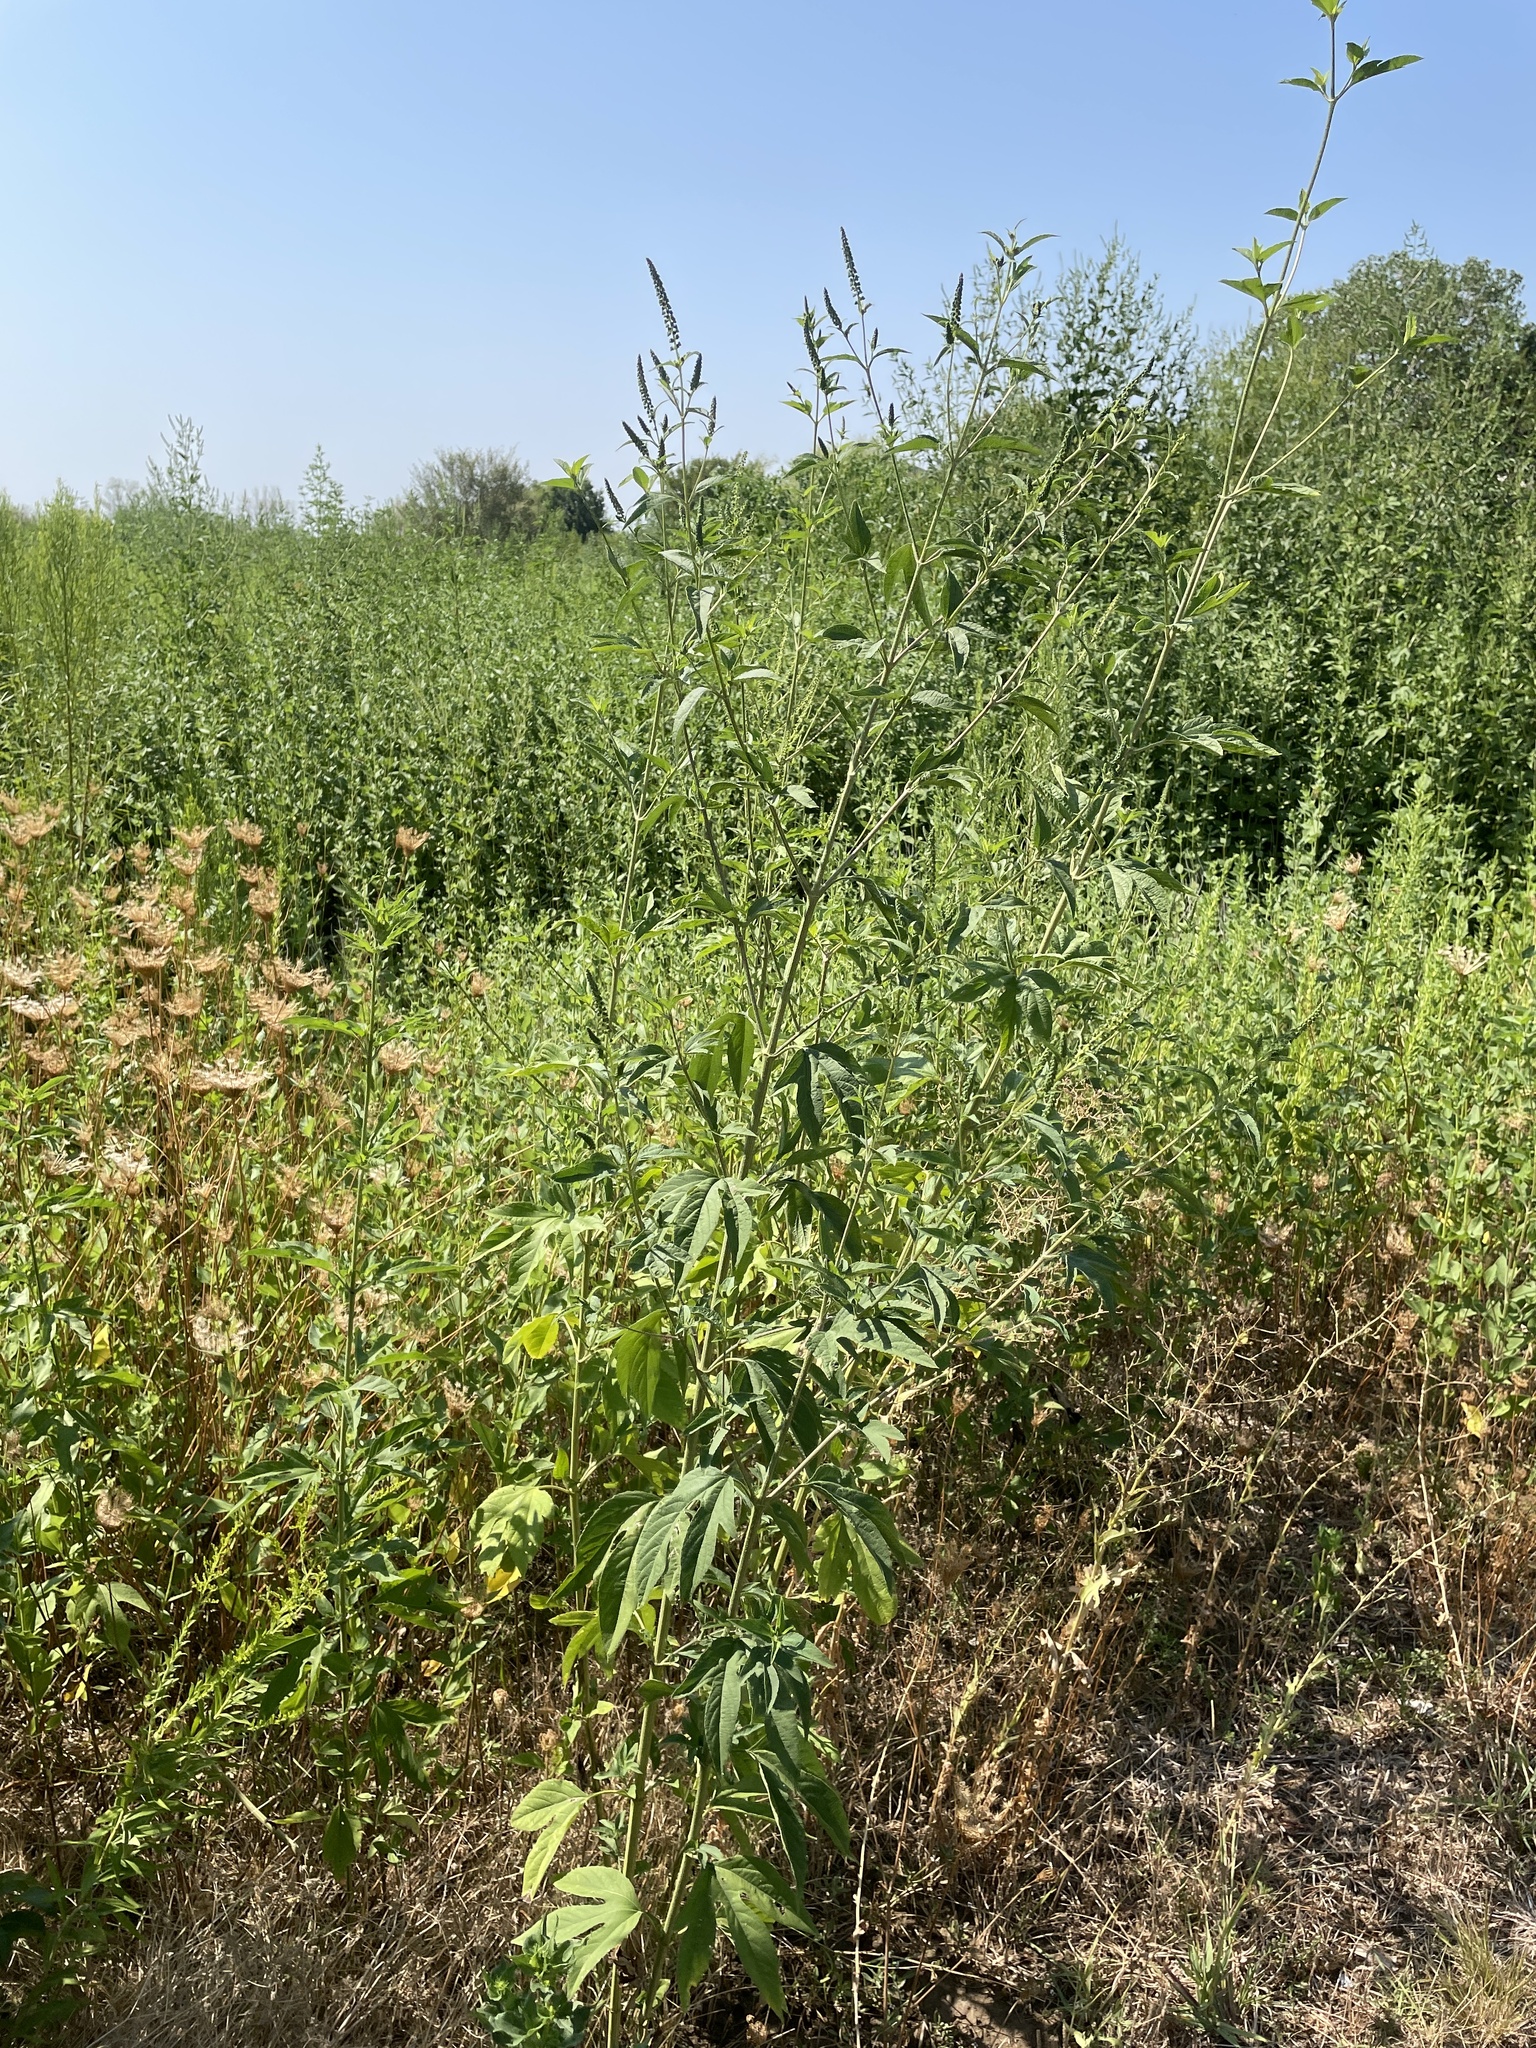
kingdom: Plantae
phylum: Tracheophyta
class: Magnoliopsida
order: Asterales
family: Asteraceae
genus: Ambrosia
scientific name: Ambrosia trifida
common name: Giant ragweed
